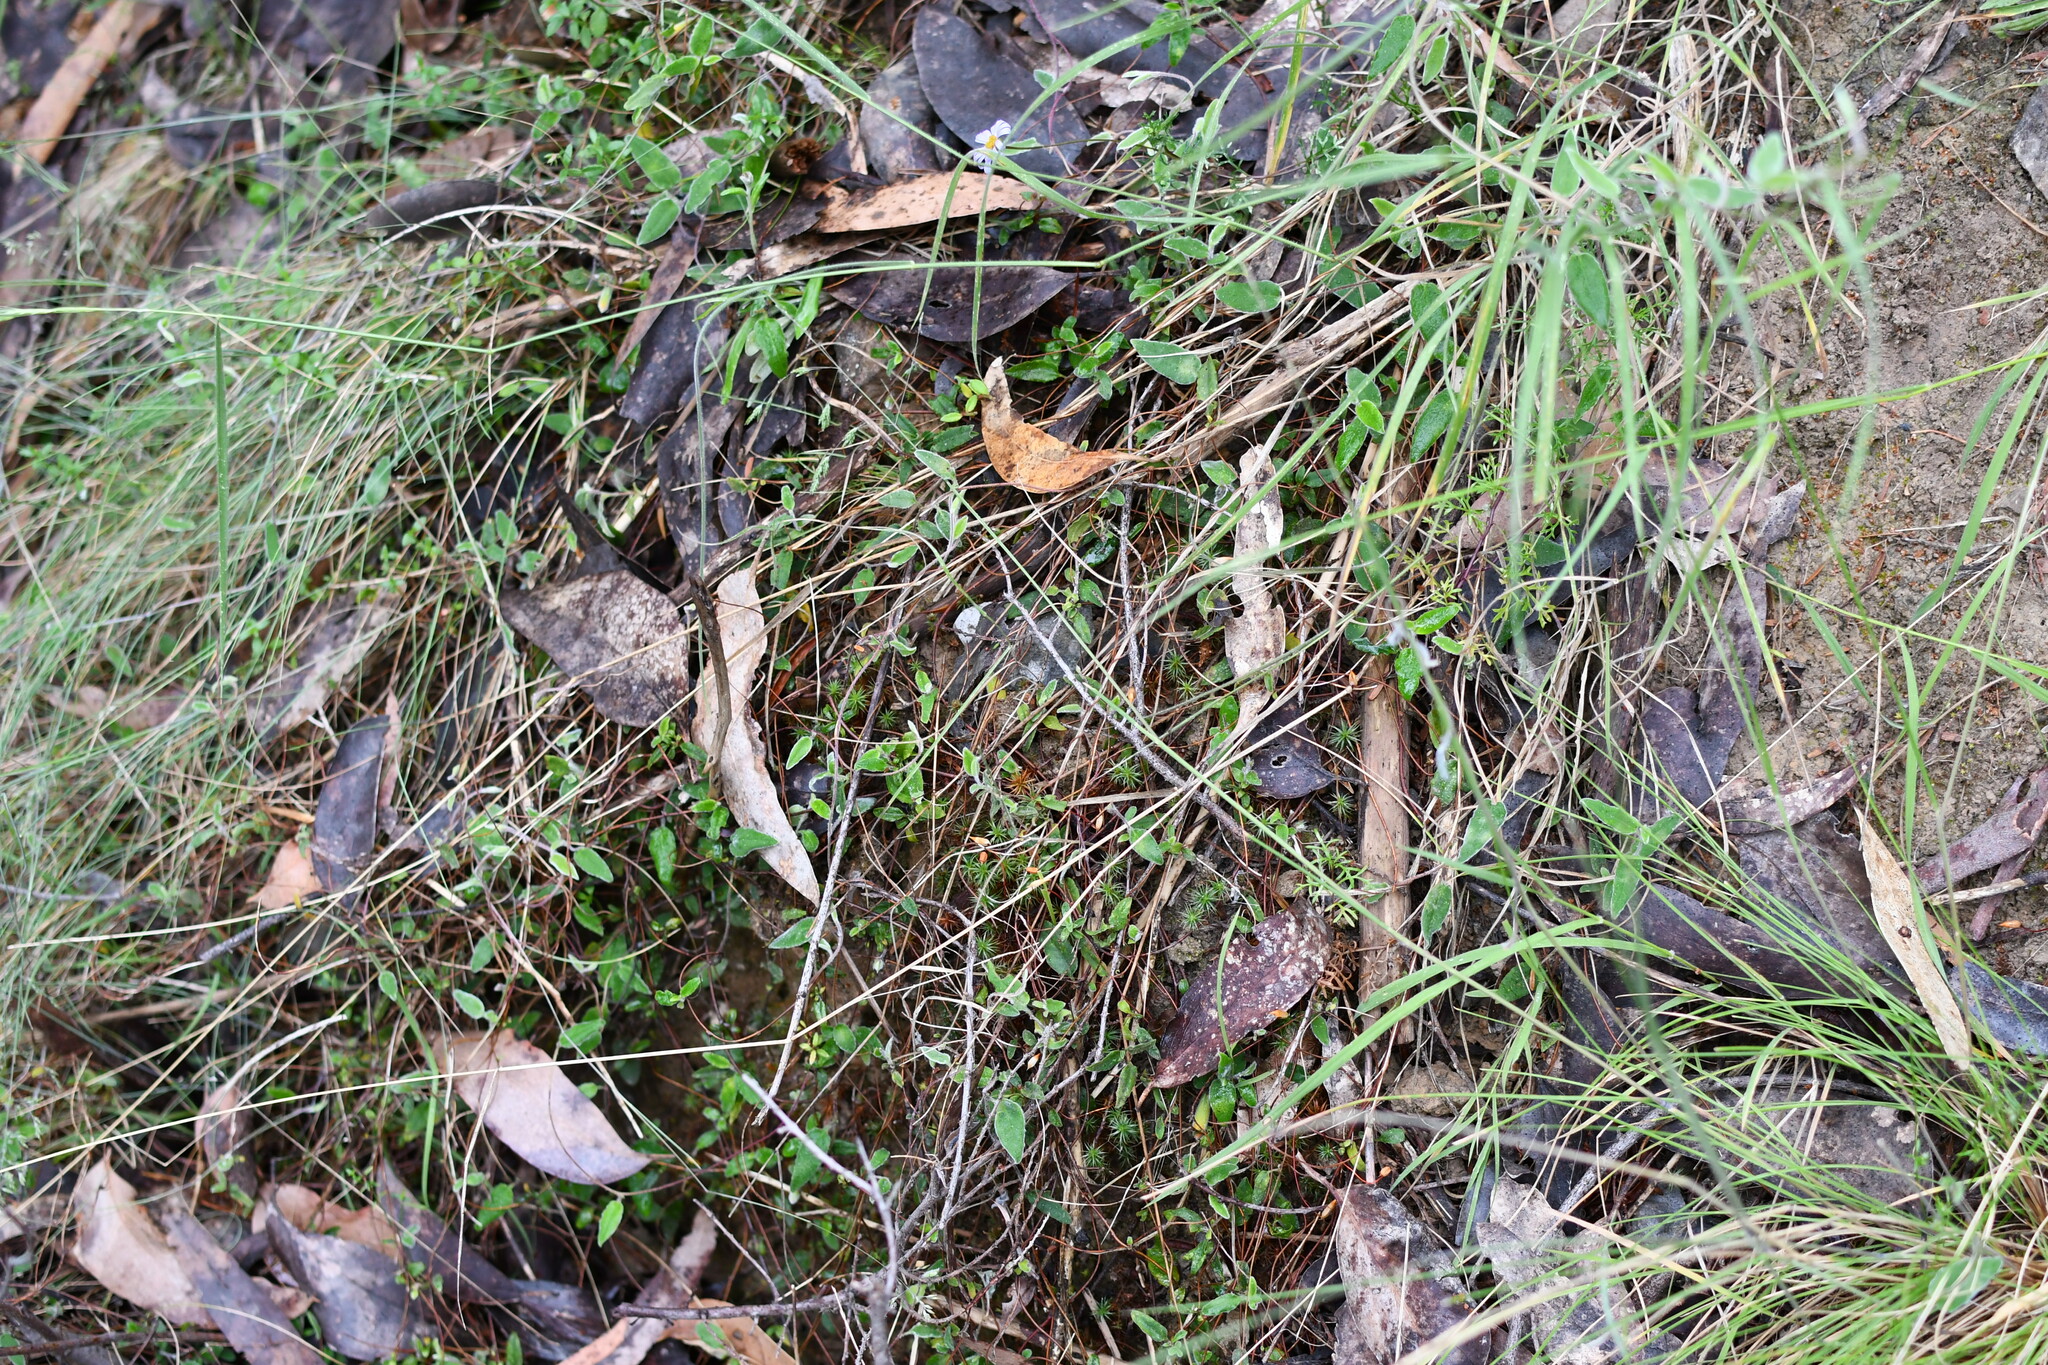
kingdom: Plantae
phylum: Tracheophyta
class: Magnoliopsida
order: Apiales
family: Pittosporaceae
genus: Marianthus
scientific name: Marianthus bignoniaceus
